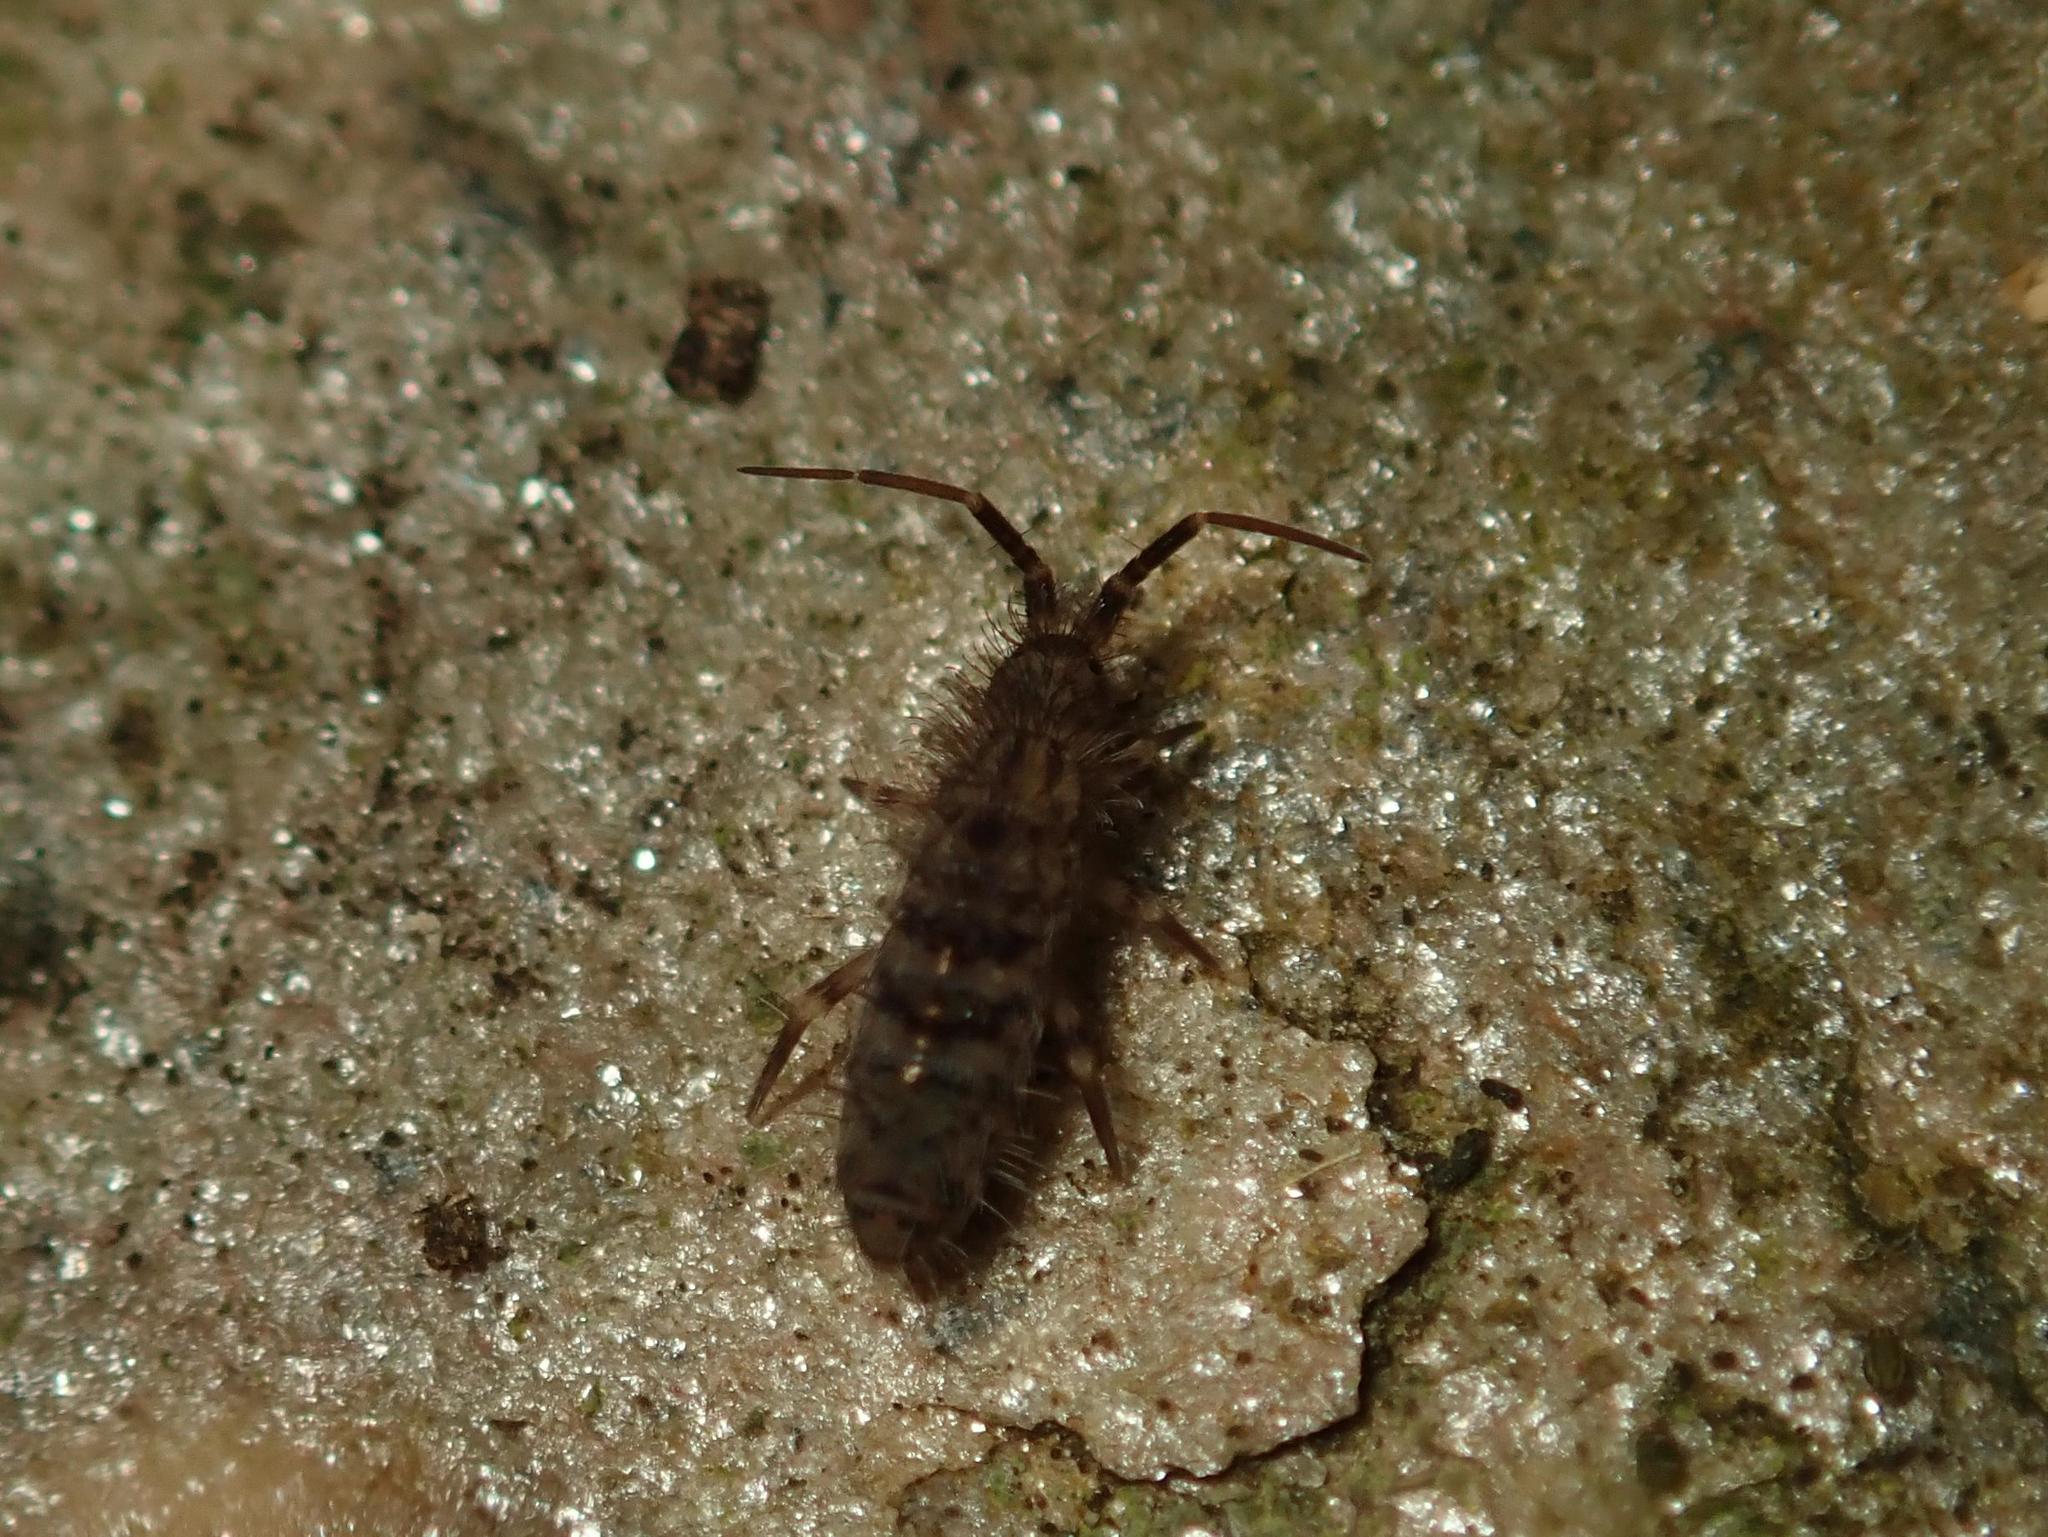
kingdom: Animalia
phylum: Arthropoda
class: Collembola
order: Entomobryomorpha
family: Orchesellidae
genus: Orchesella
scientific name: Orchesella villosa
